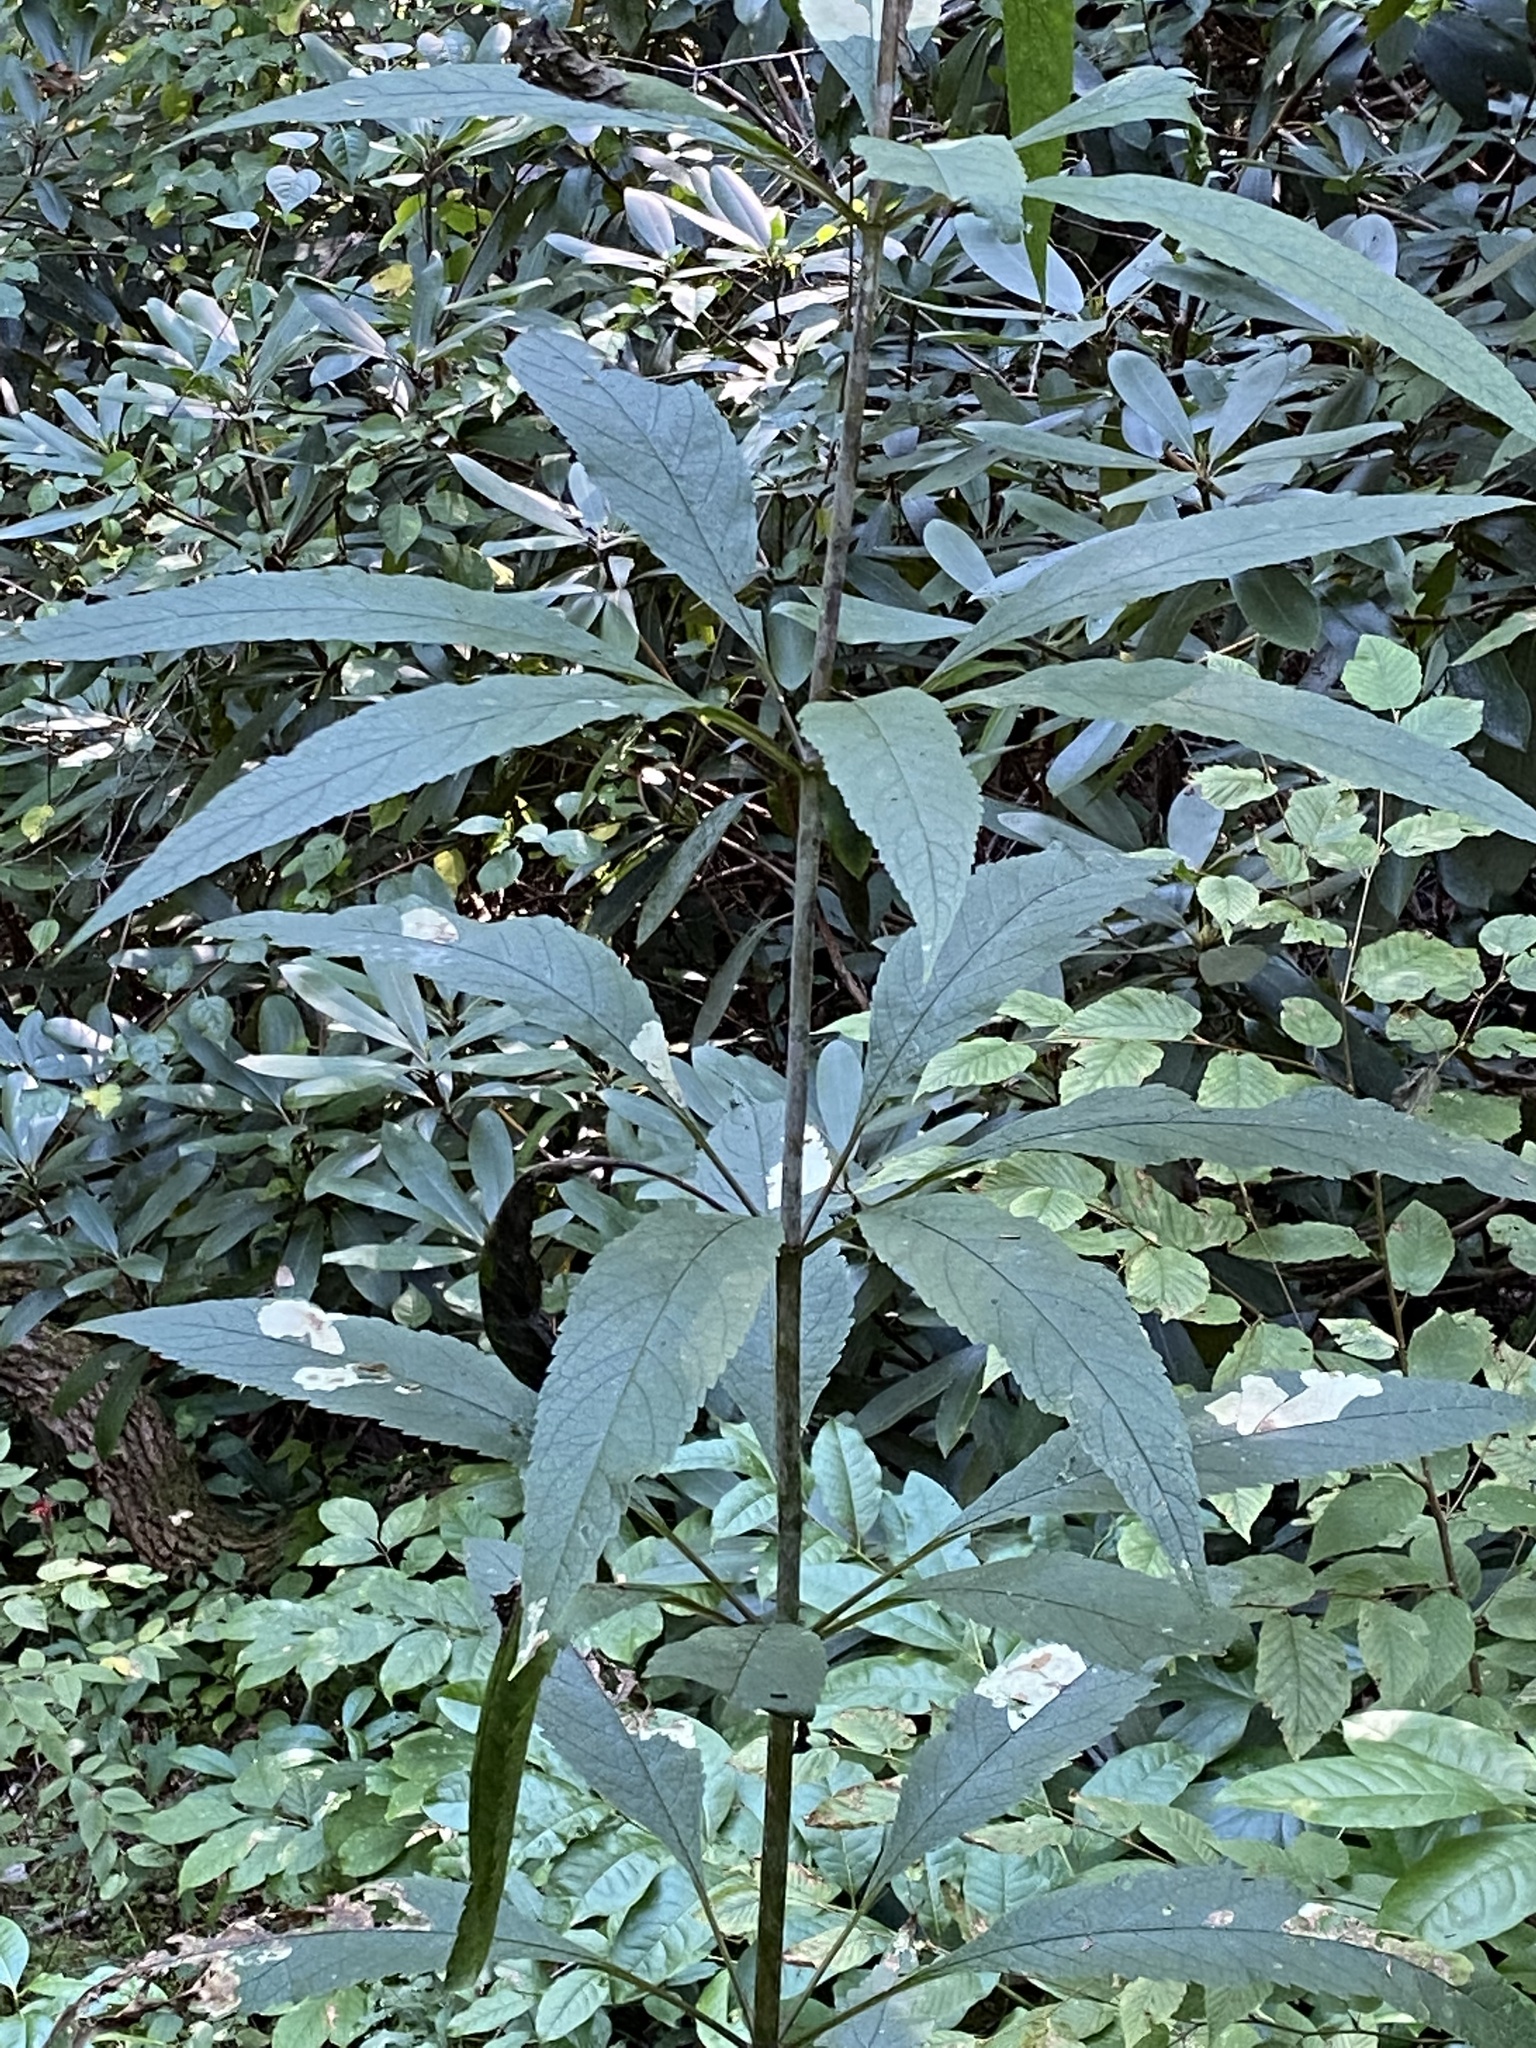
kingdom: Plantae
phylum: Tracheophyta
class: Magnoliopsida
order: Asterales
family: Asteraceae
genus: Eutrochium
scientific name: Eutrochium fistulosum
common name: Trumpetweed
